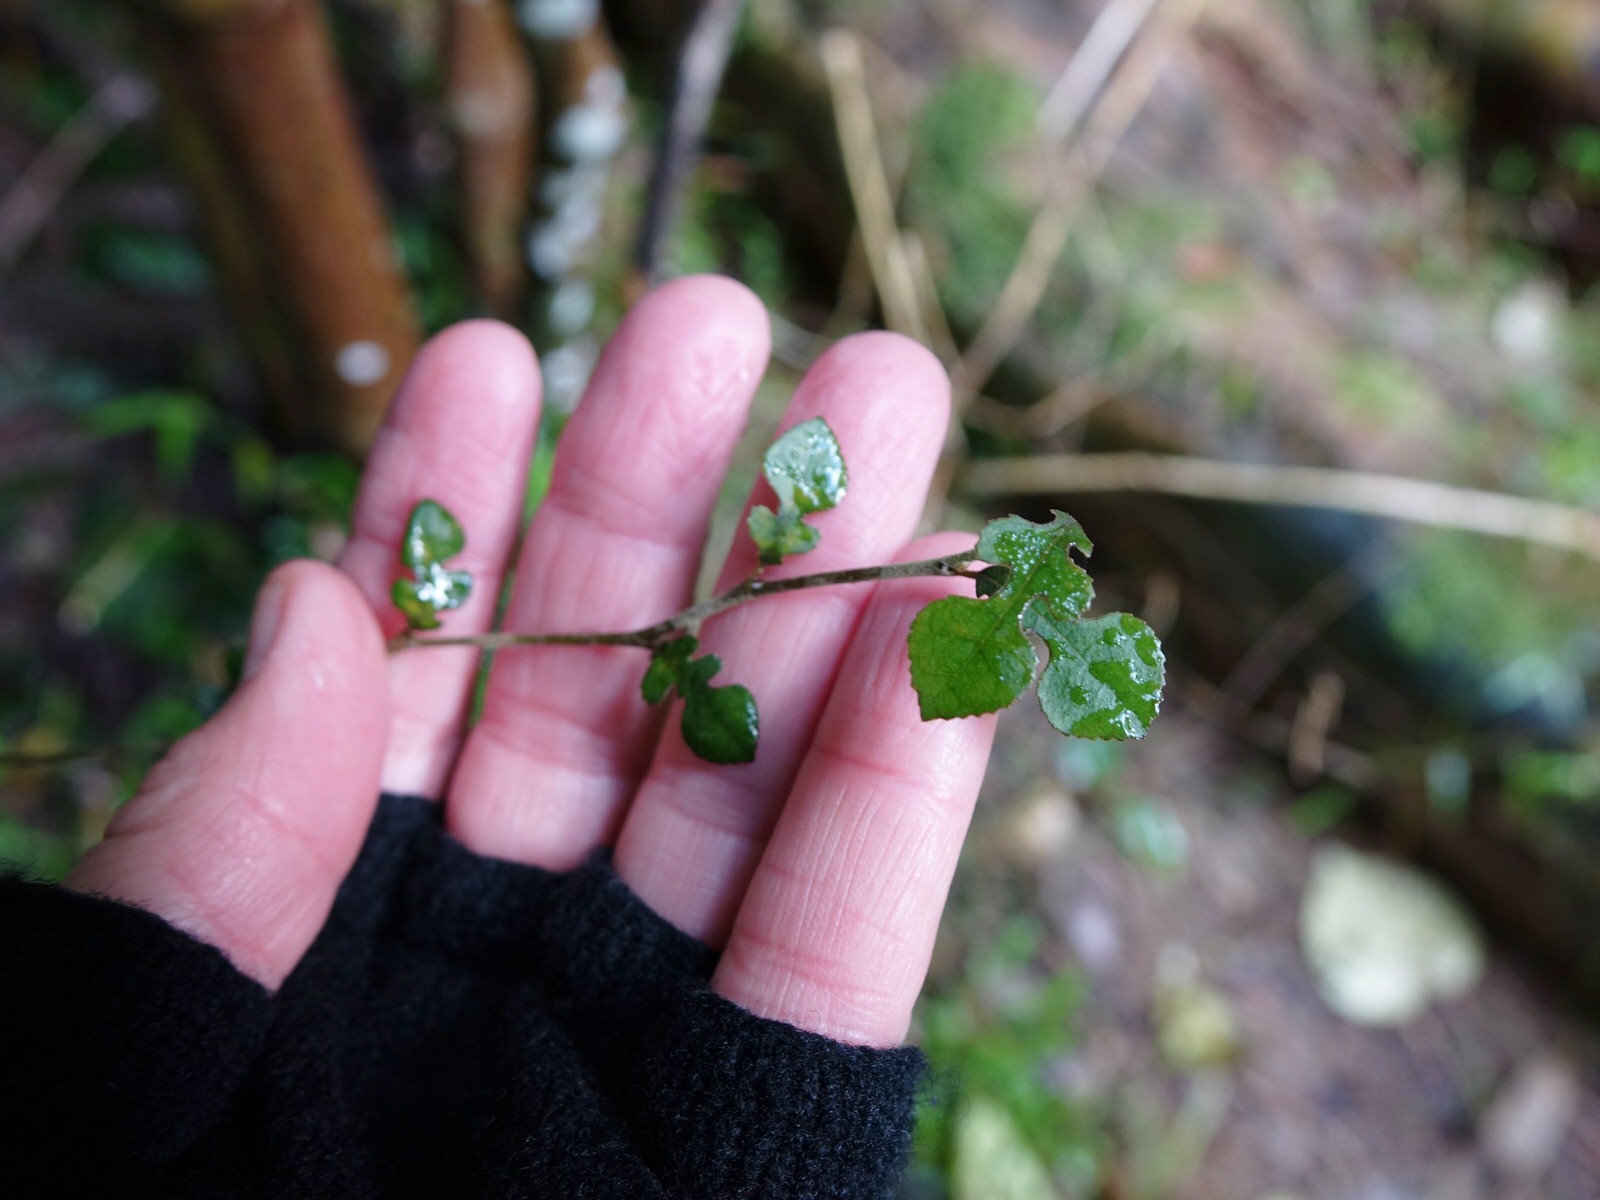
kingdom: Plantae
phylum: Tracheophyta
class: Magnoliopsida
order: Rosales
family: Moraceae
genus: Paratrophis
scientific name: Paratrophis microphylla
